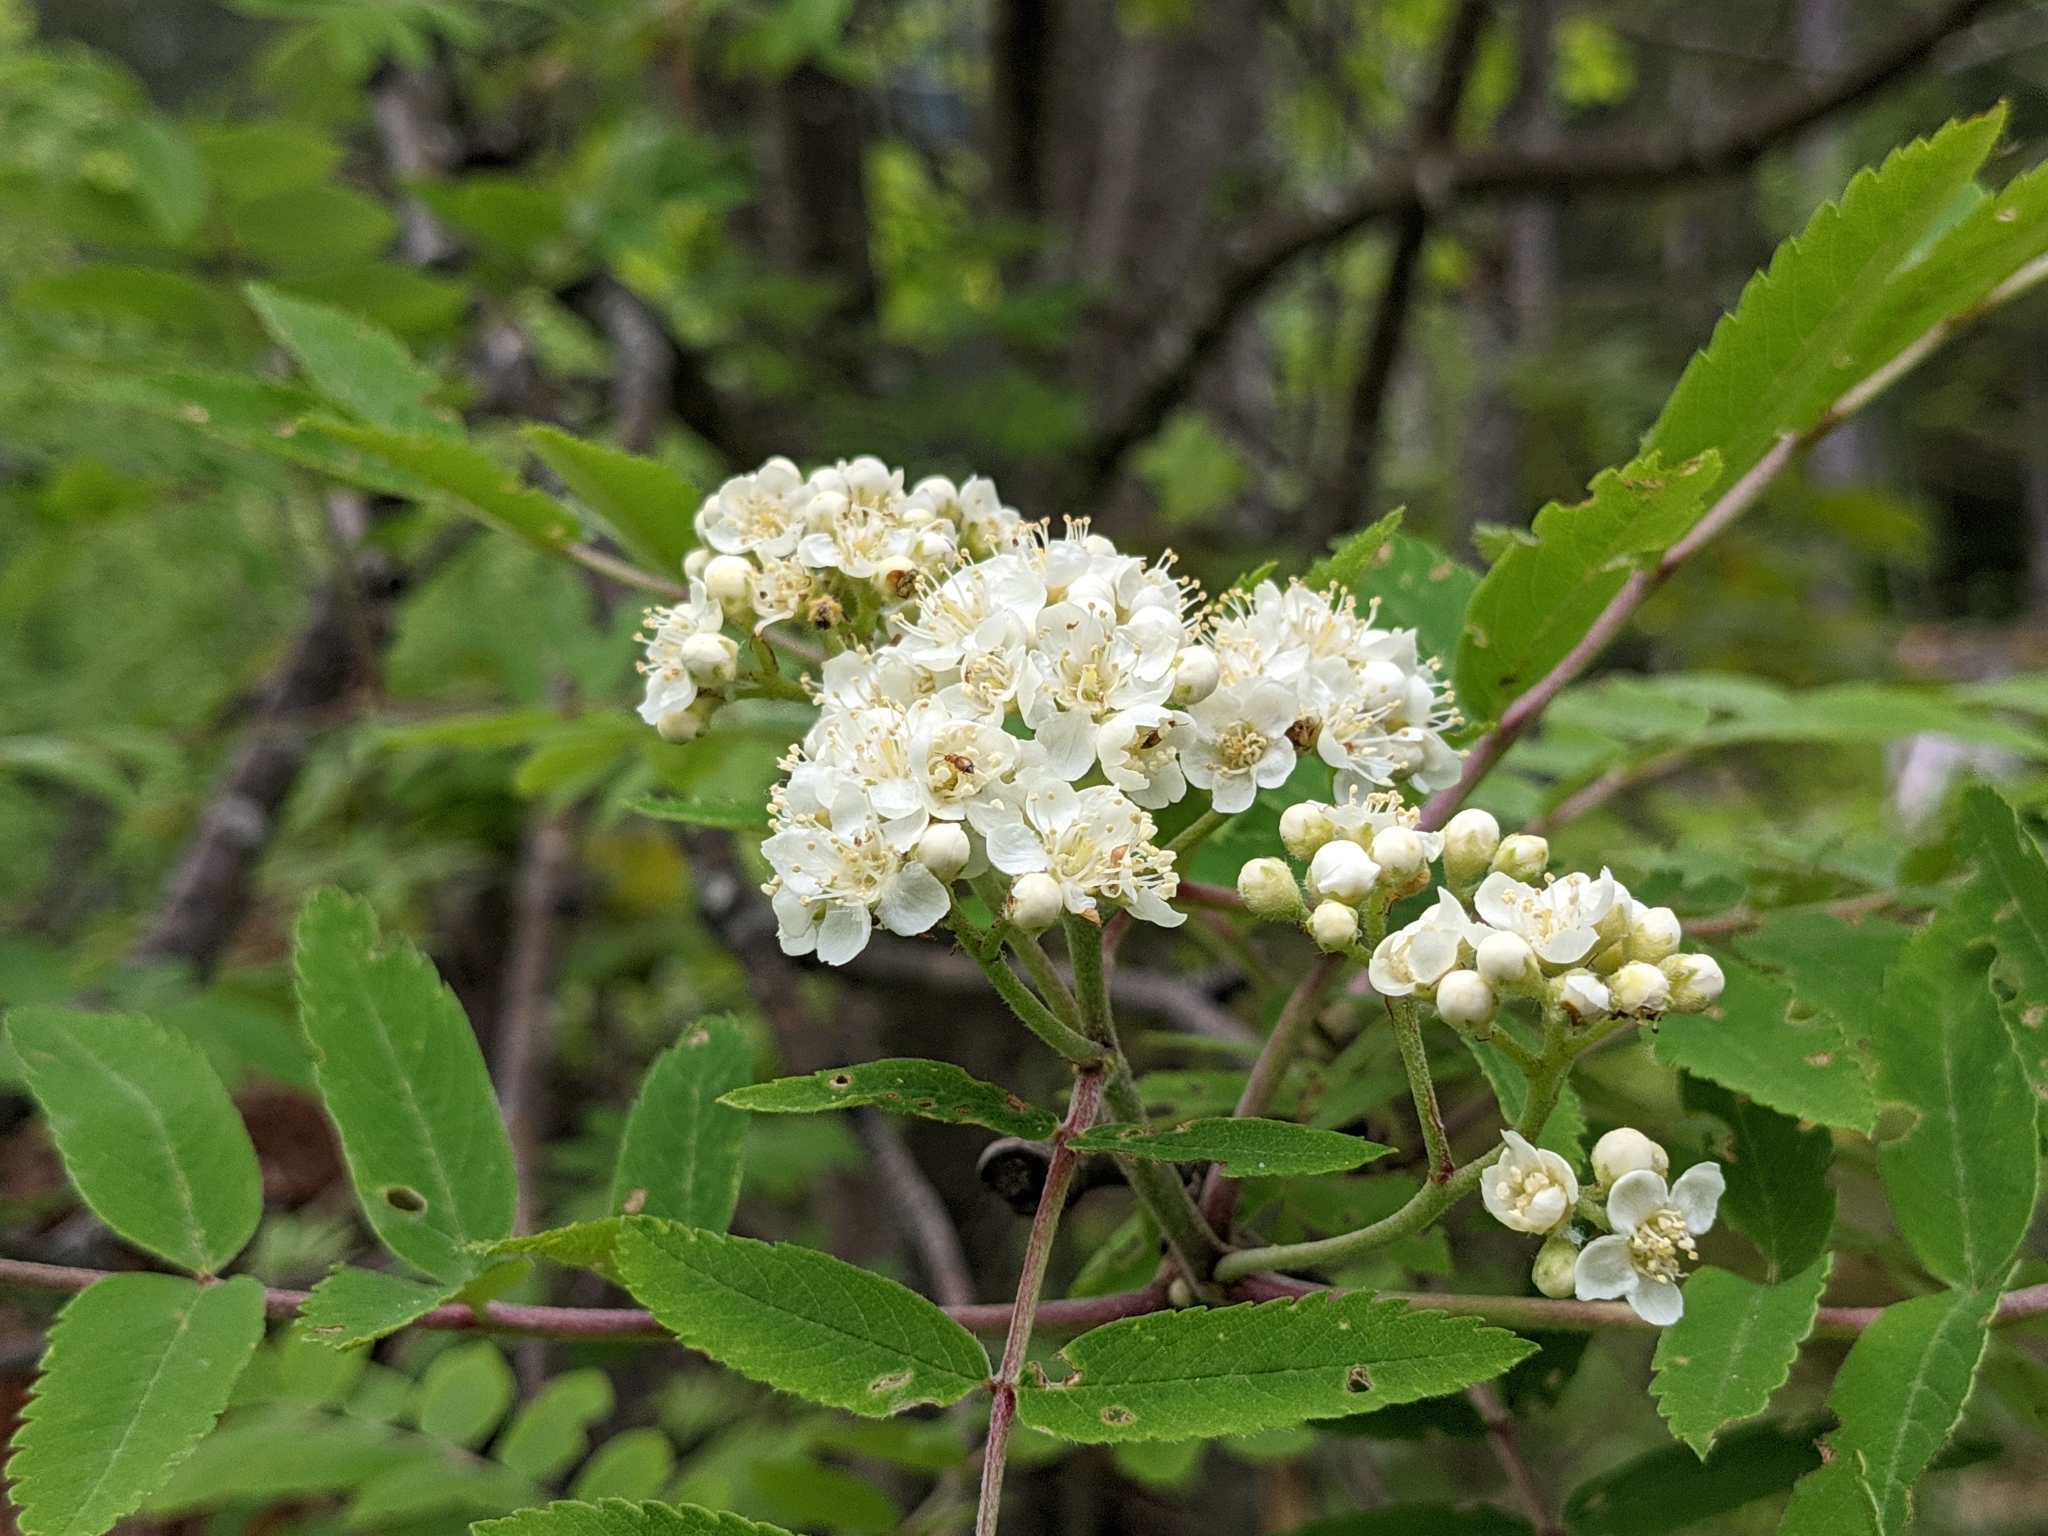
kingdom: Plantae
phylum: Tracheophyta
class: Magnoliopsida
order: Rosales
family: Rosaceae
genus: Sorbus
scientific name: Sorbus aucuparia
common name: Rowan
